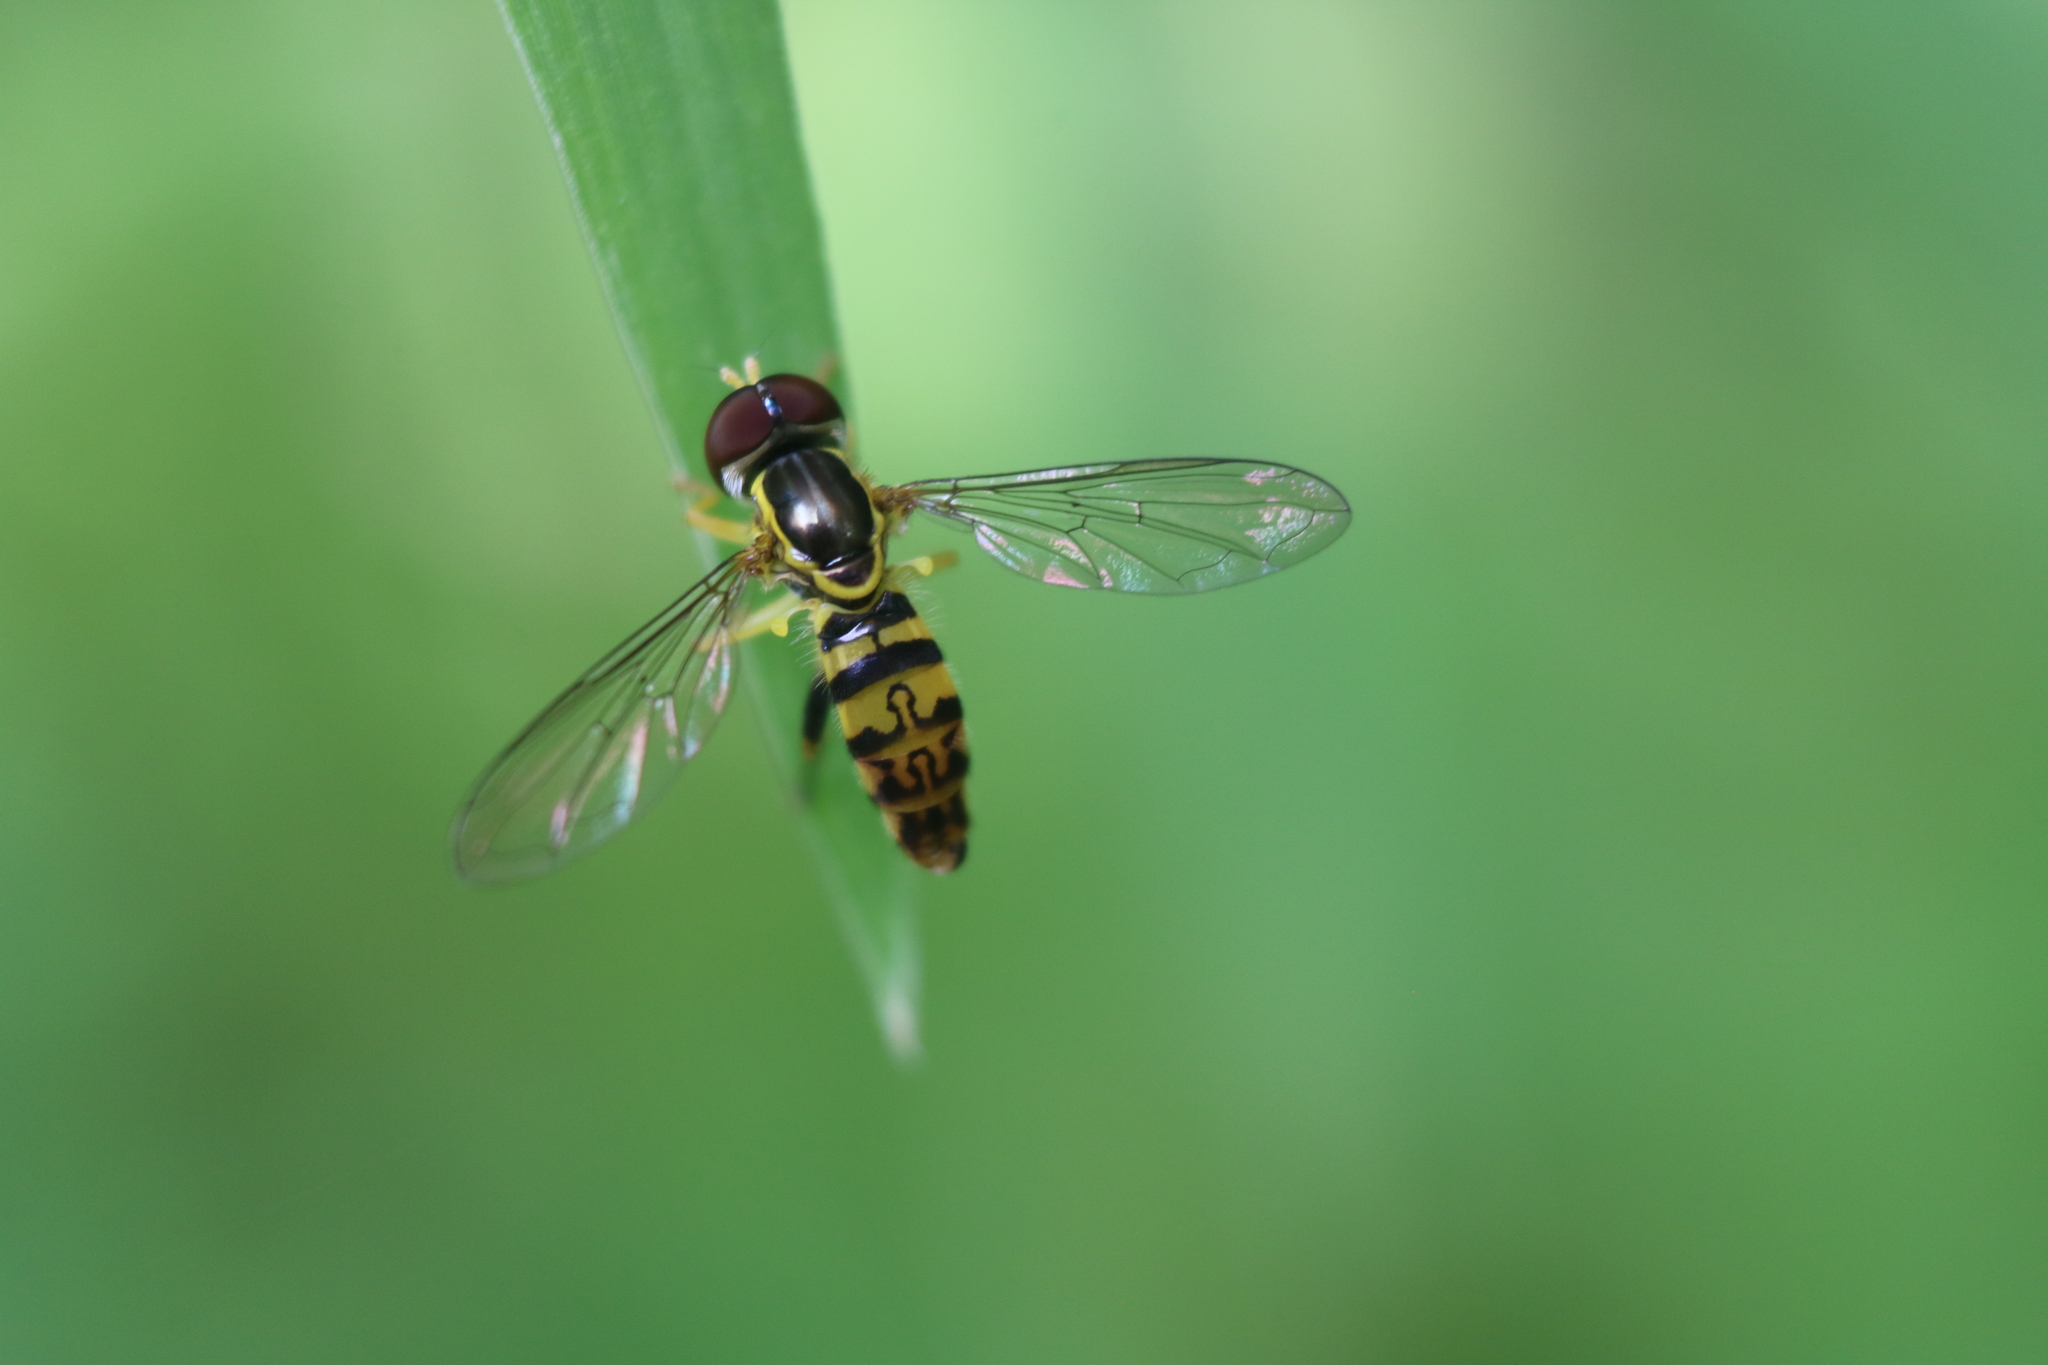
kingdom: Animalia
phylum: Arthropoda
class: Insecta
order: Diptera
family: Syrphidae
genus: Toxomerus
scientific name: Toxomerus geminatus
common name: Eastern calligrapher
